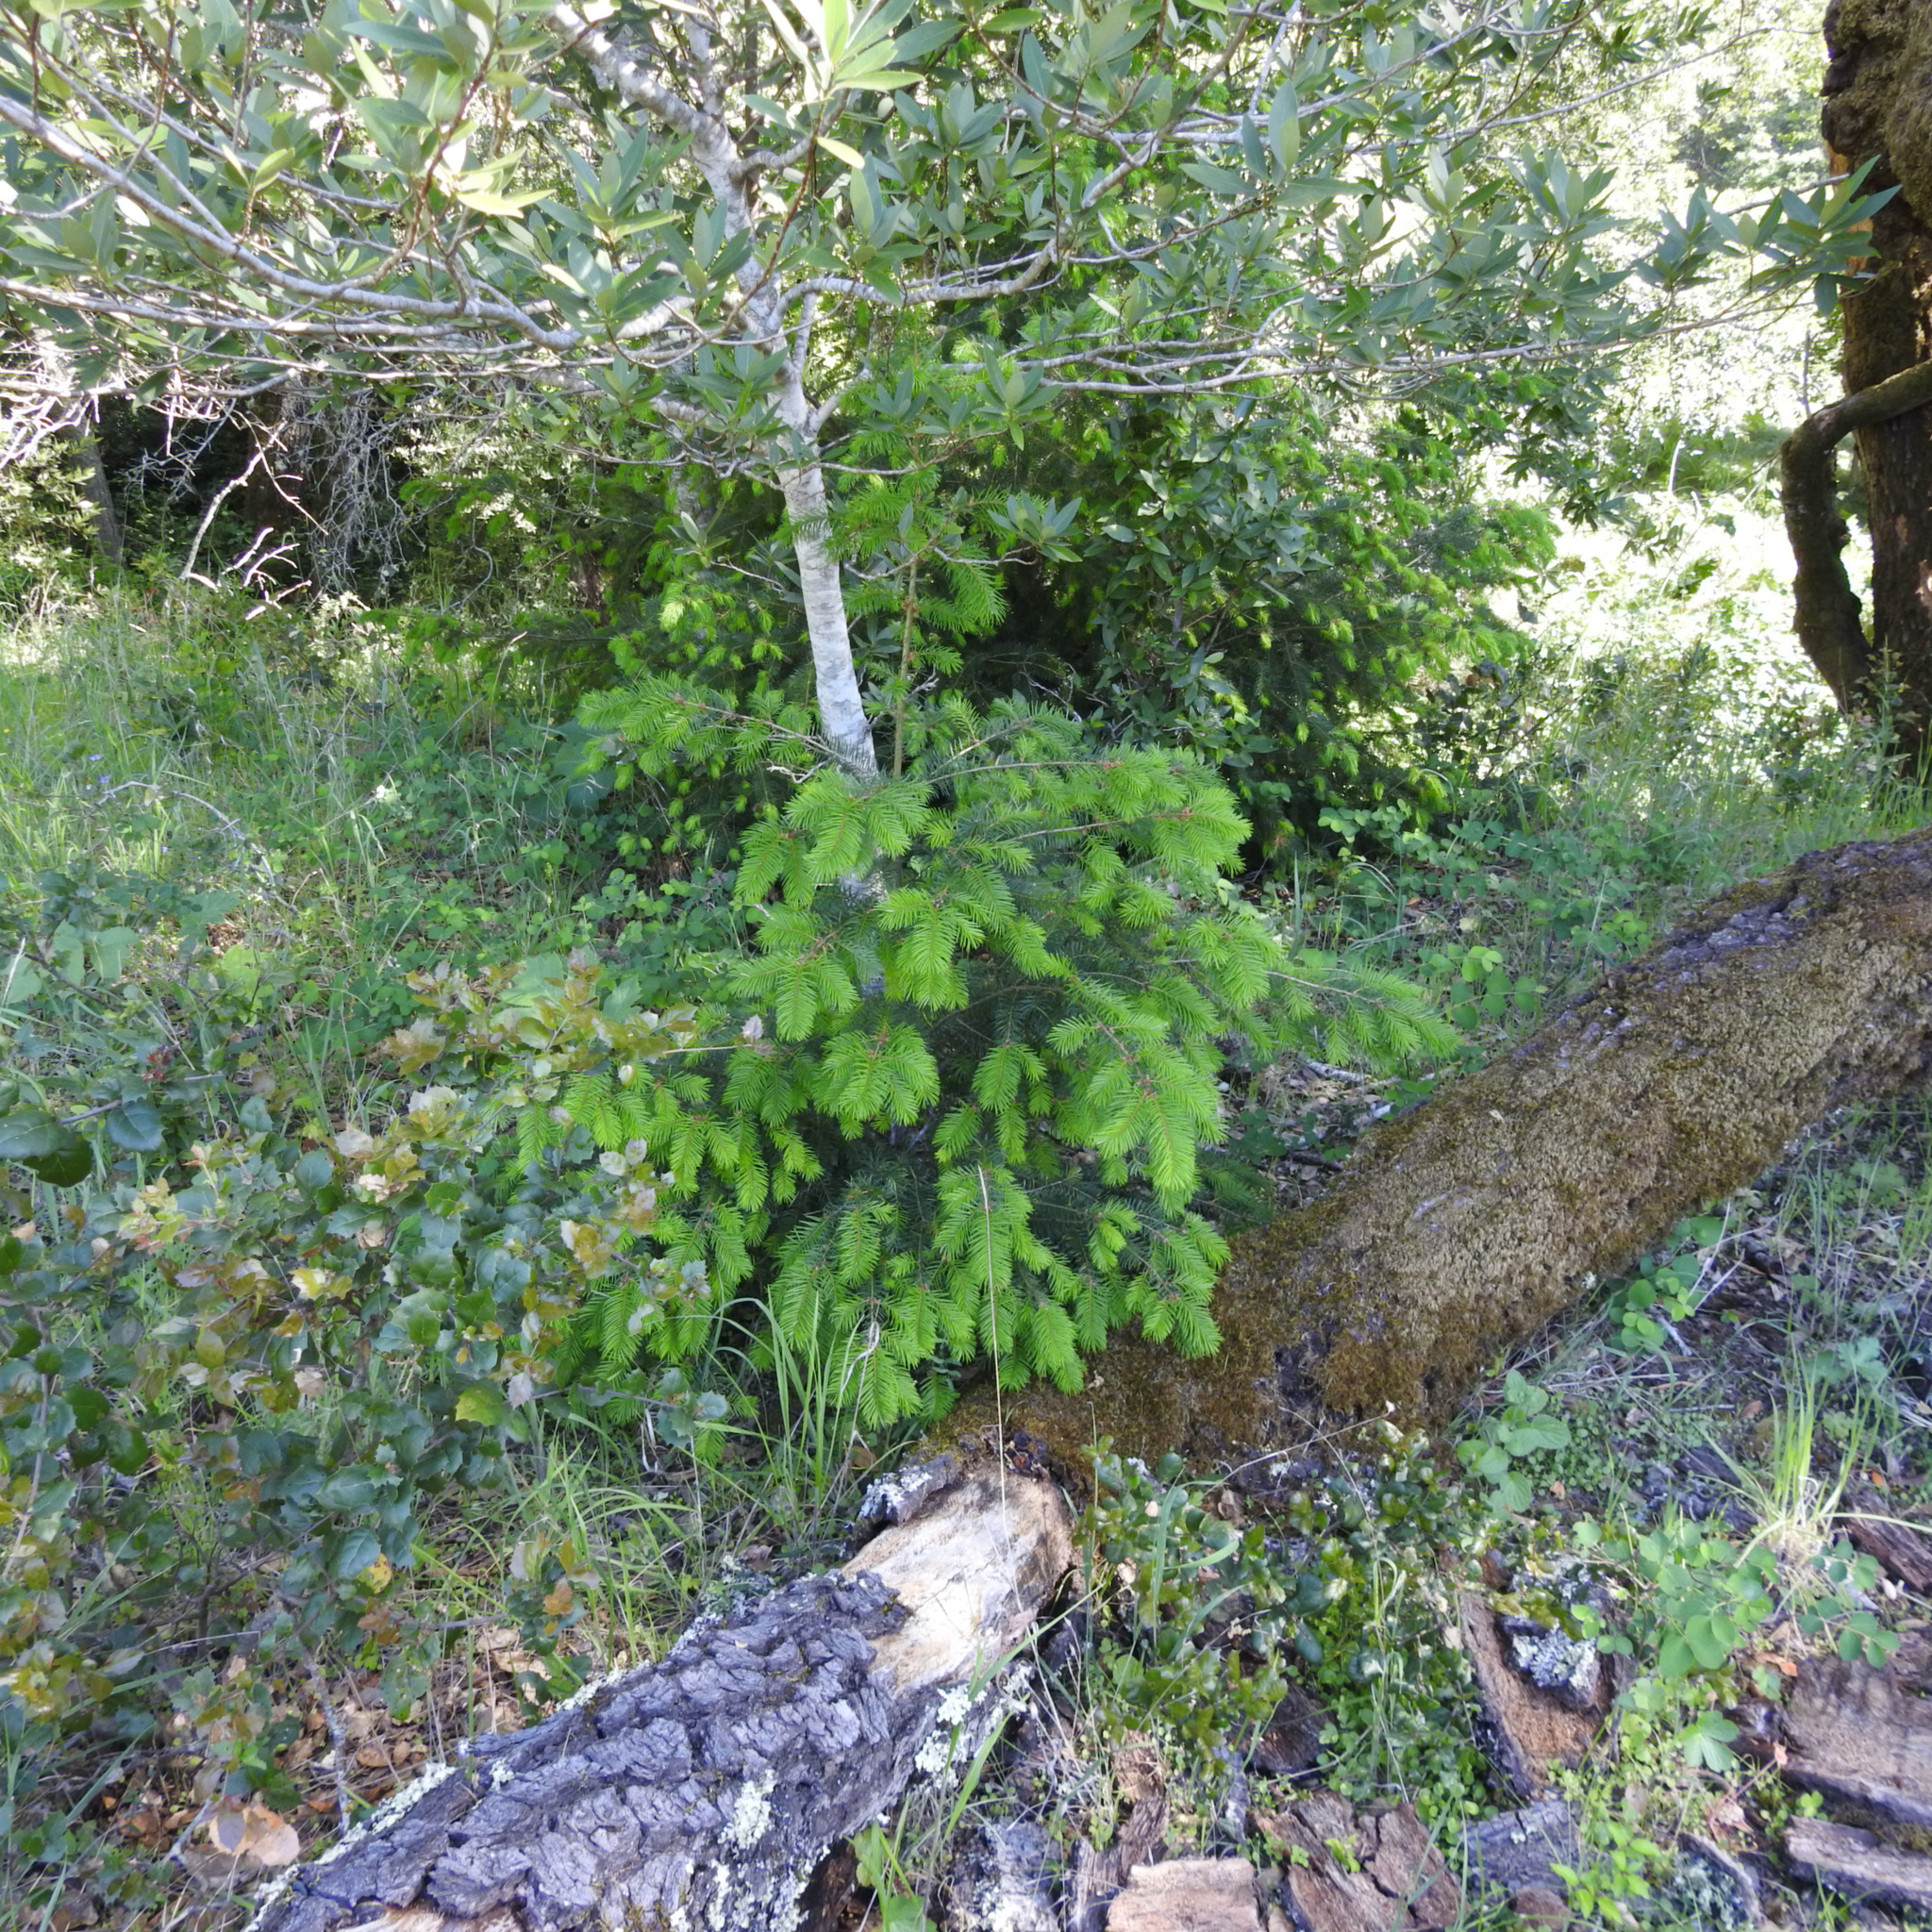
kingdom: Plantae
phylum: Tracheophyta
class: Pinopsida
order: Pinales
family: Pinaceae
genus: Pseudotsuga
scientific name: Pseudotsuga menziesii
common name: Douglas fir
